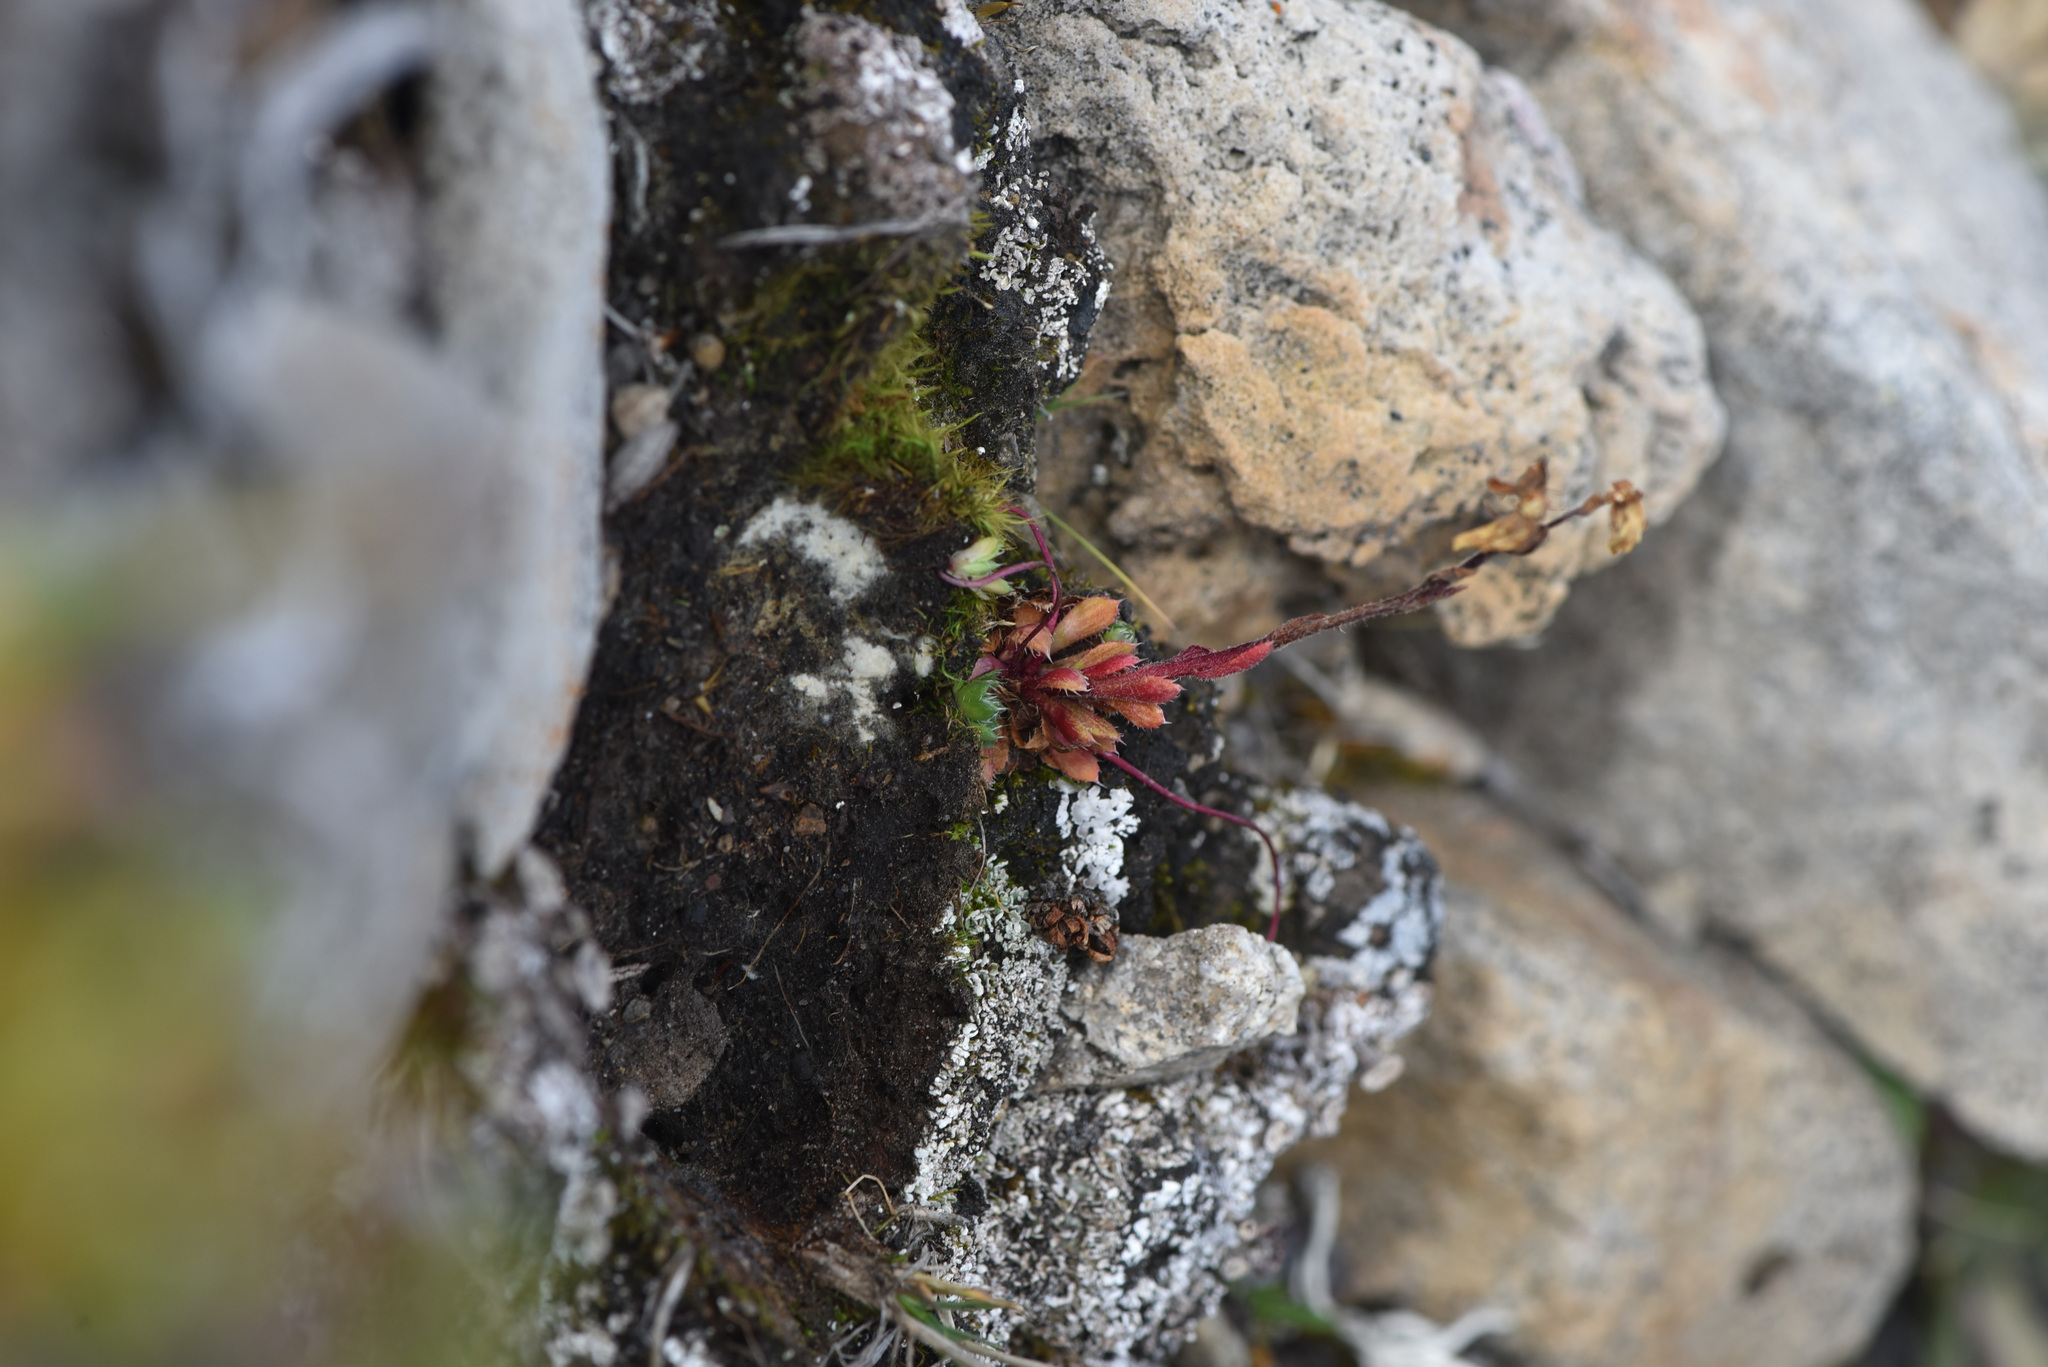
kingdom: Plantae
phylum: Tracheophyta
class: Magnoliopsida
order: Saxifragales
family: Saxifragaceae
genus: Saxifraga
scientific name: Saxifraga flagellaris
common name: Spider saxifrage
